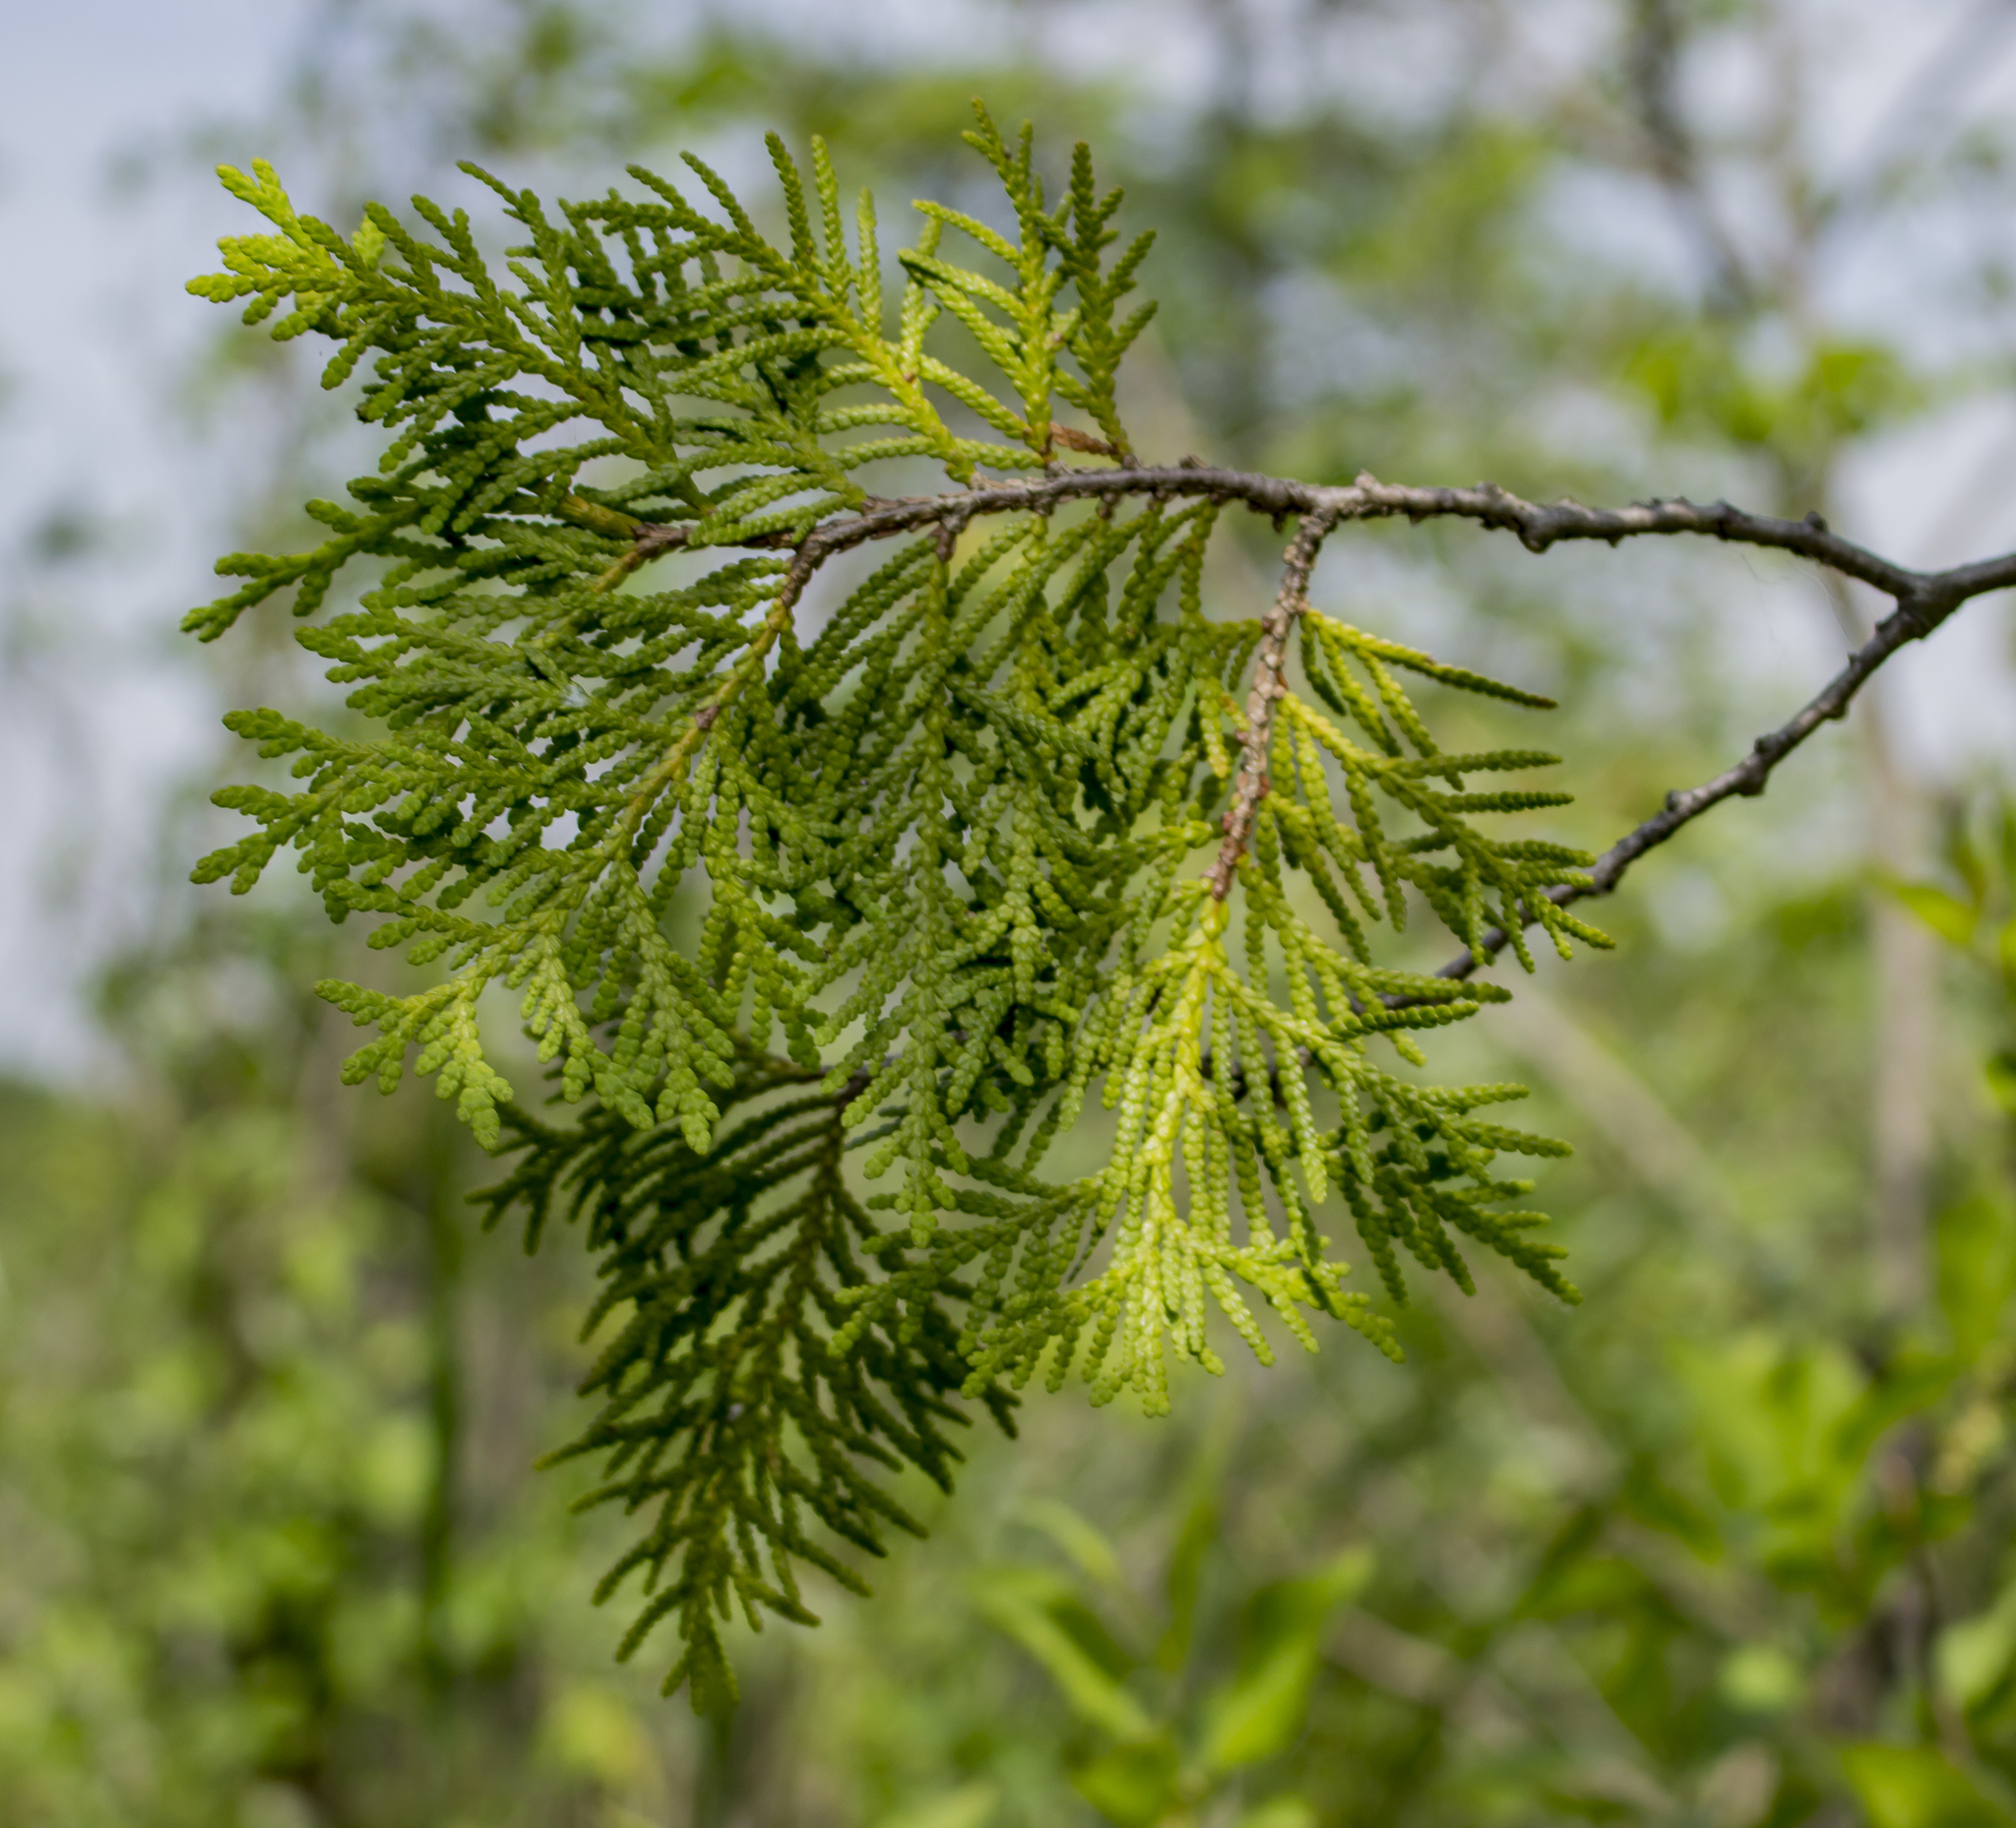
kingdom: Plantae
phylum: Tracheophyta
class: Pinopsida
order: Pinales
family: Cupressaceae
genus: Thuja
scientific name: Thuja occidentalis
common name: Northern white-cedar
